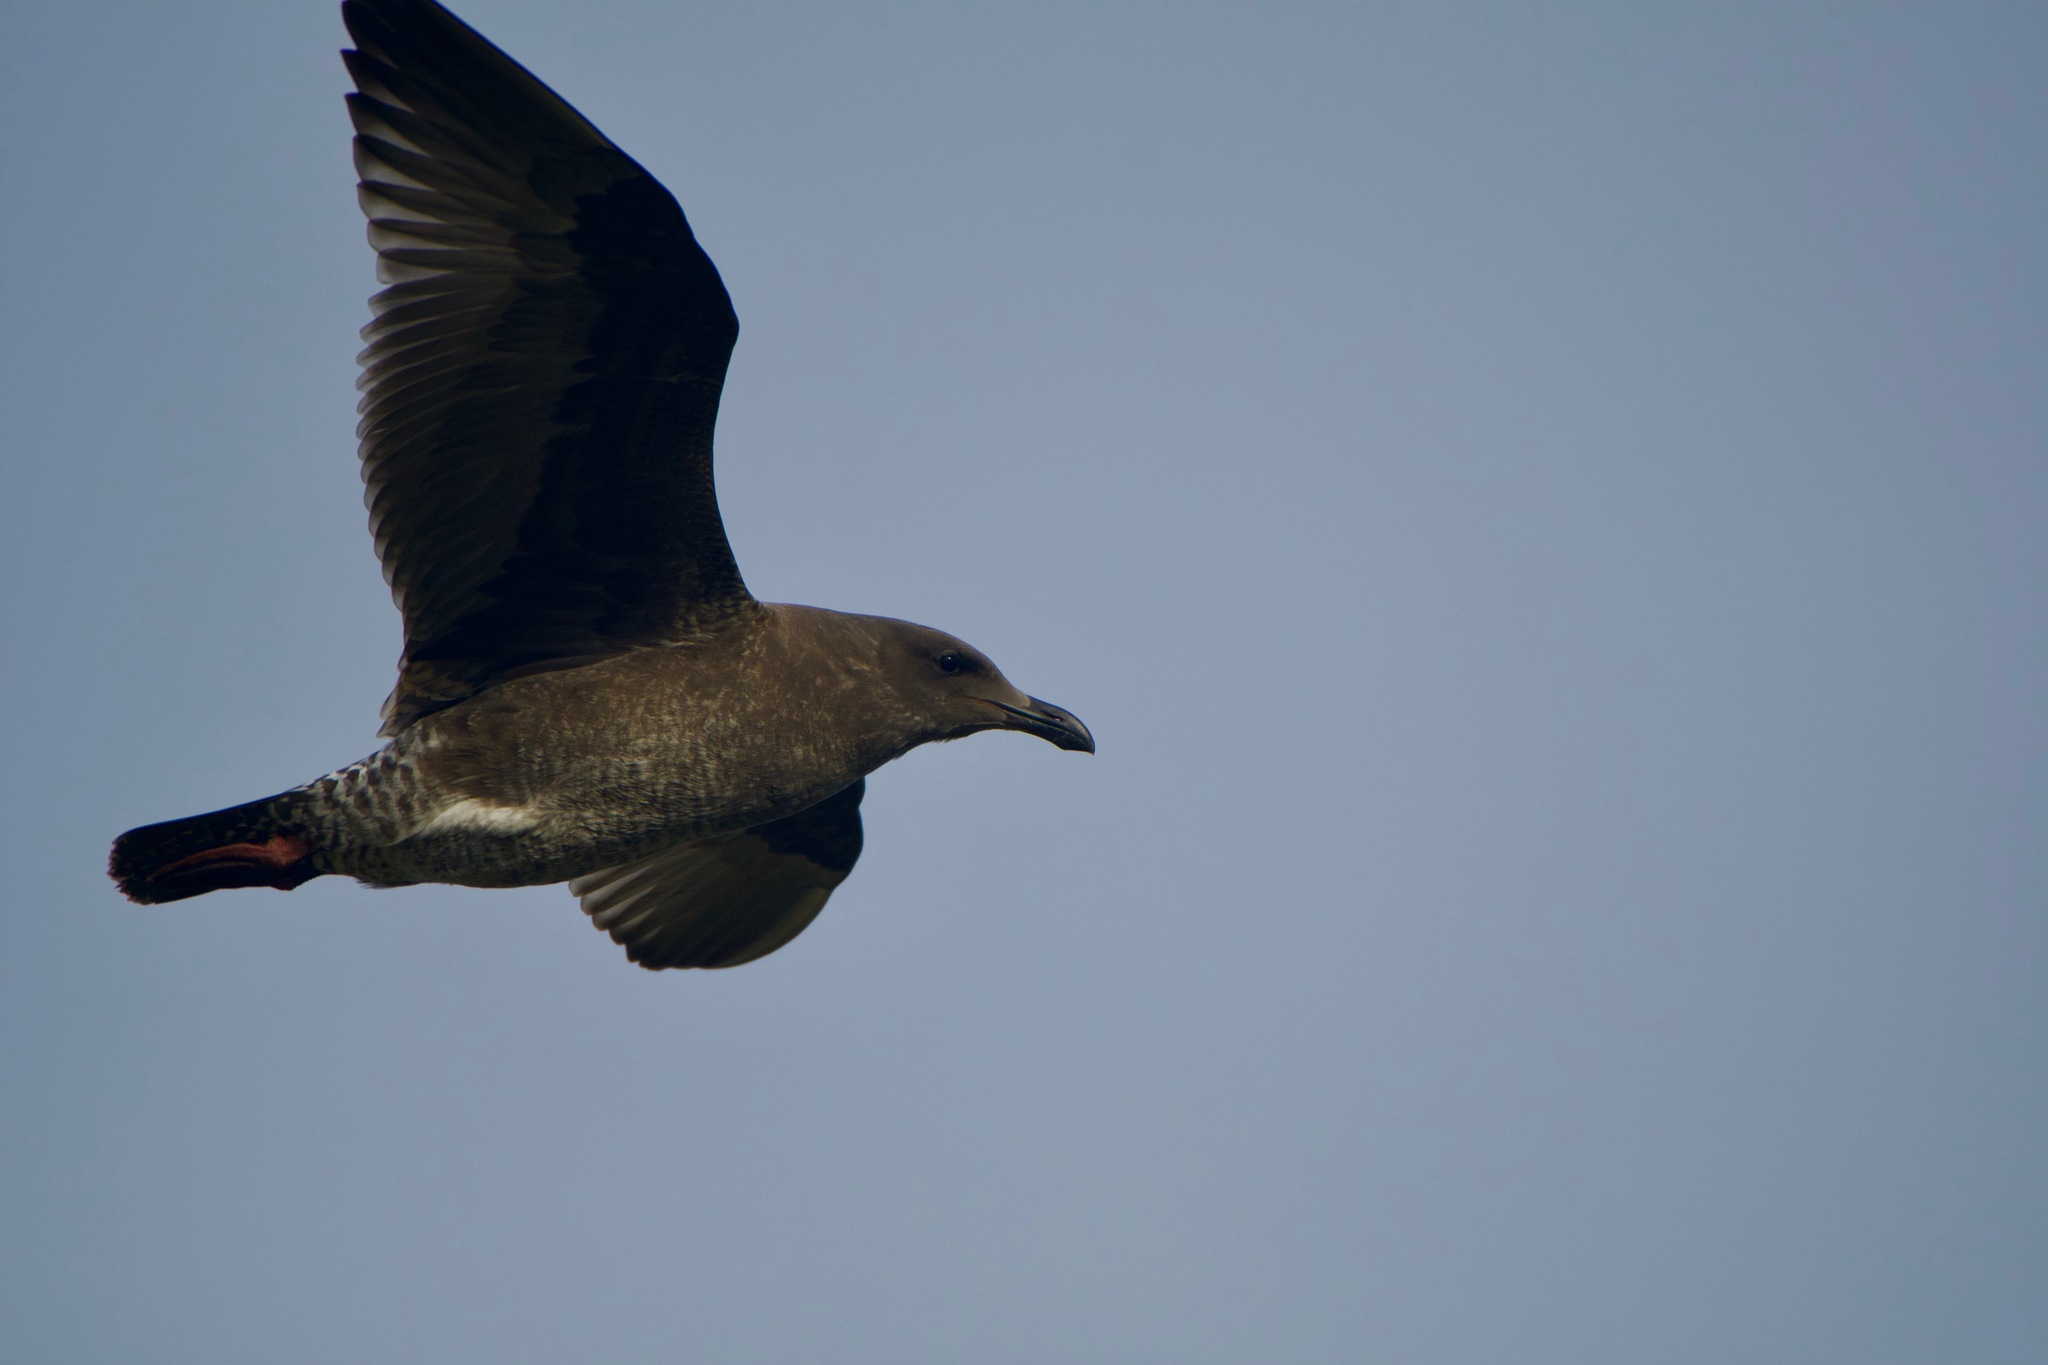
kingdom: Animalia
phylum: Chordata
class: Aves
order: Charadriiformes
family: Laridae
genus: Larus
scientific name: Larus occidentalis
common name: Western gull
